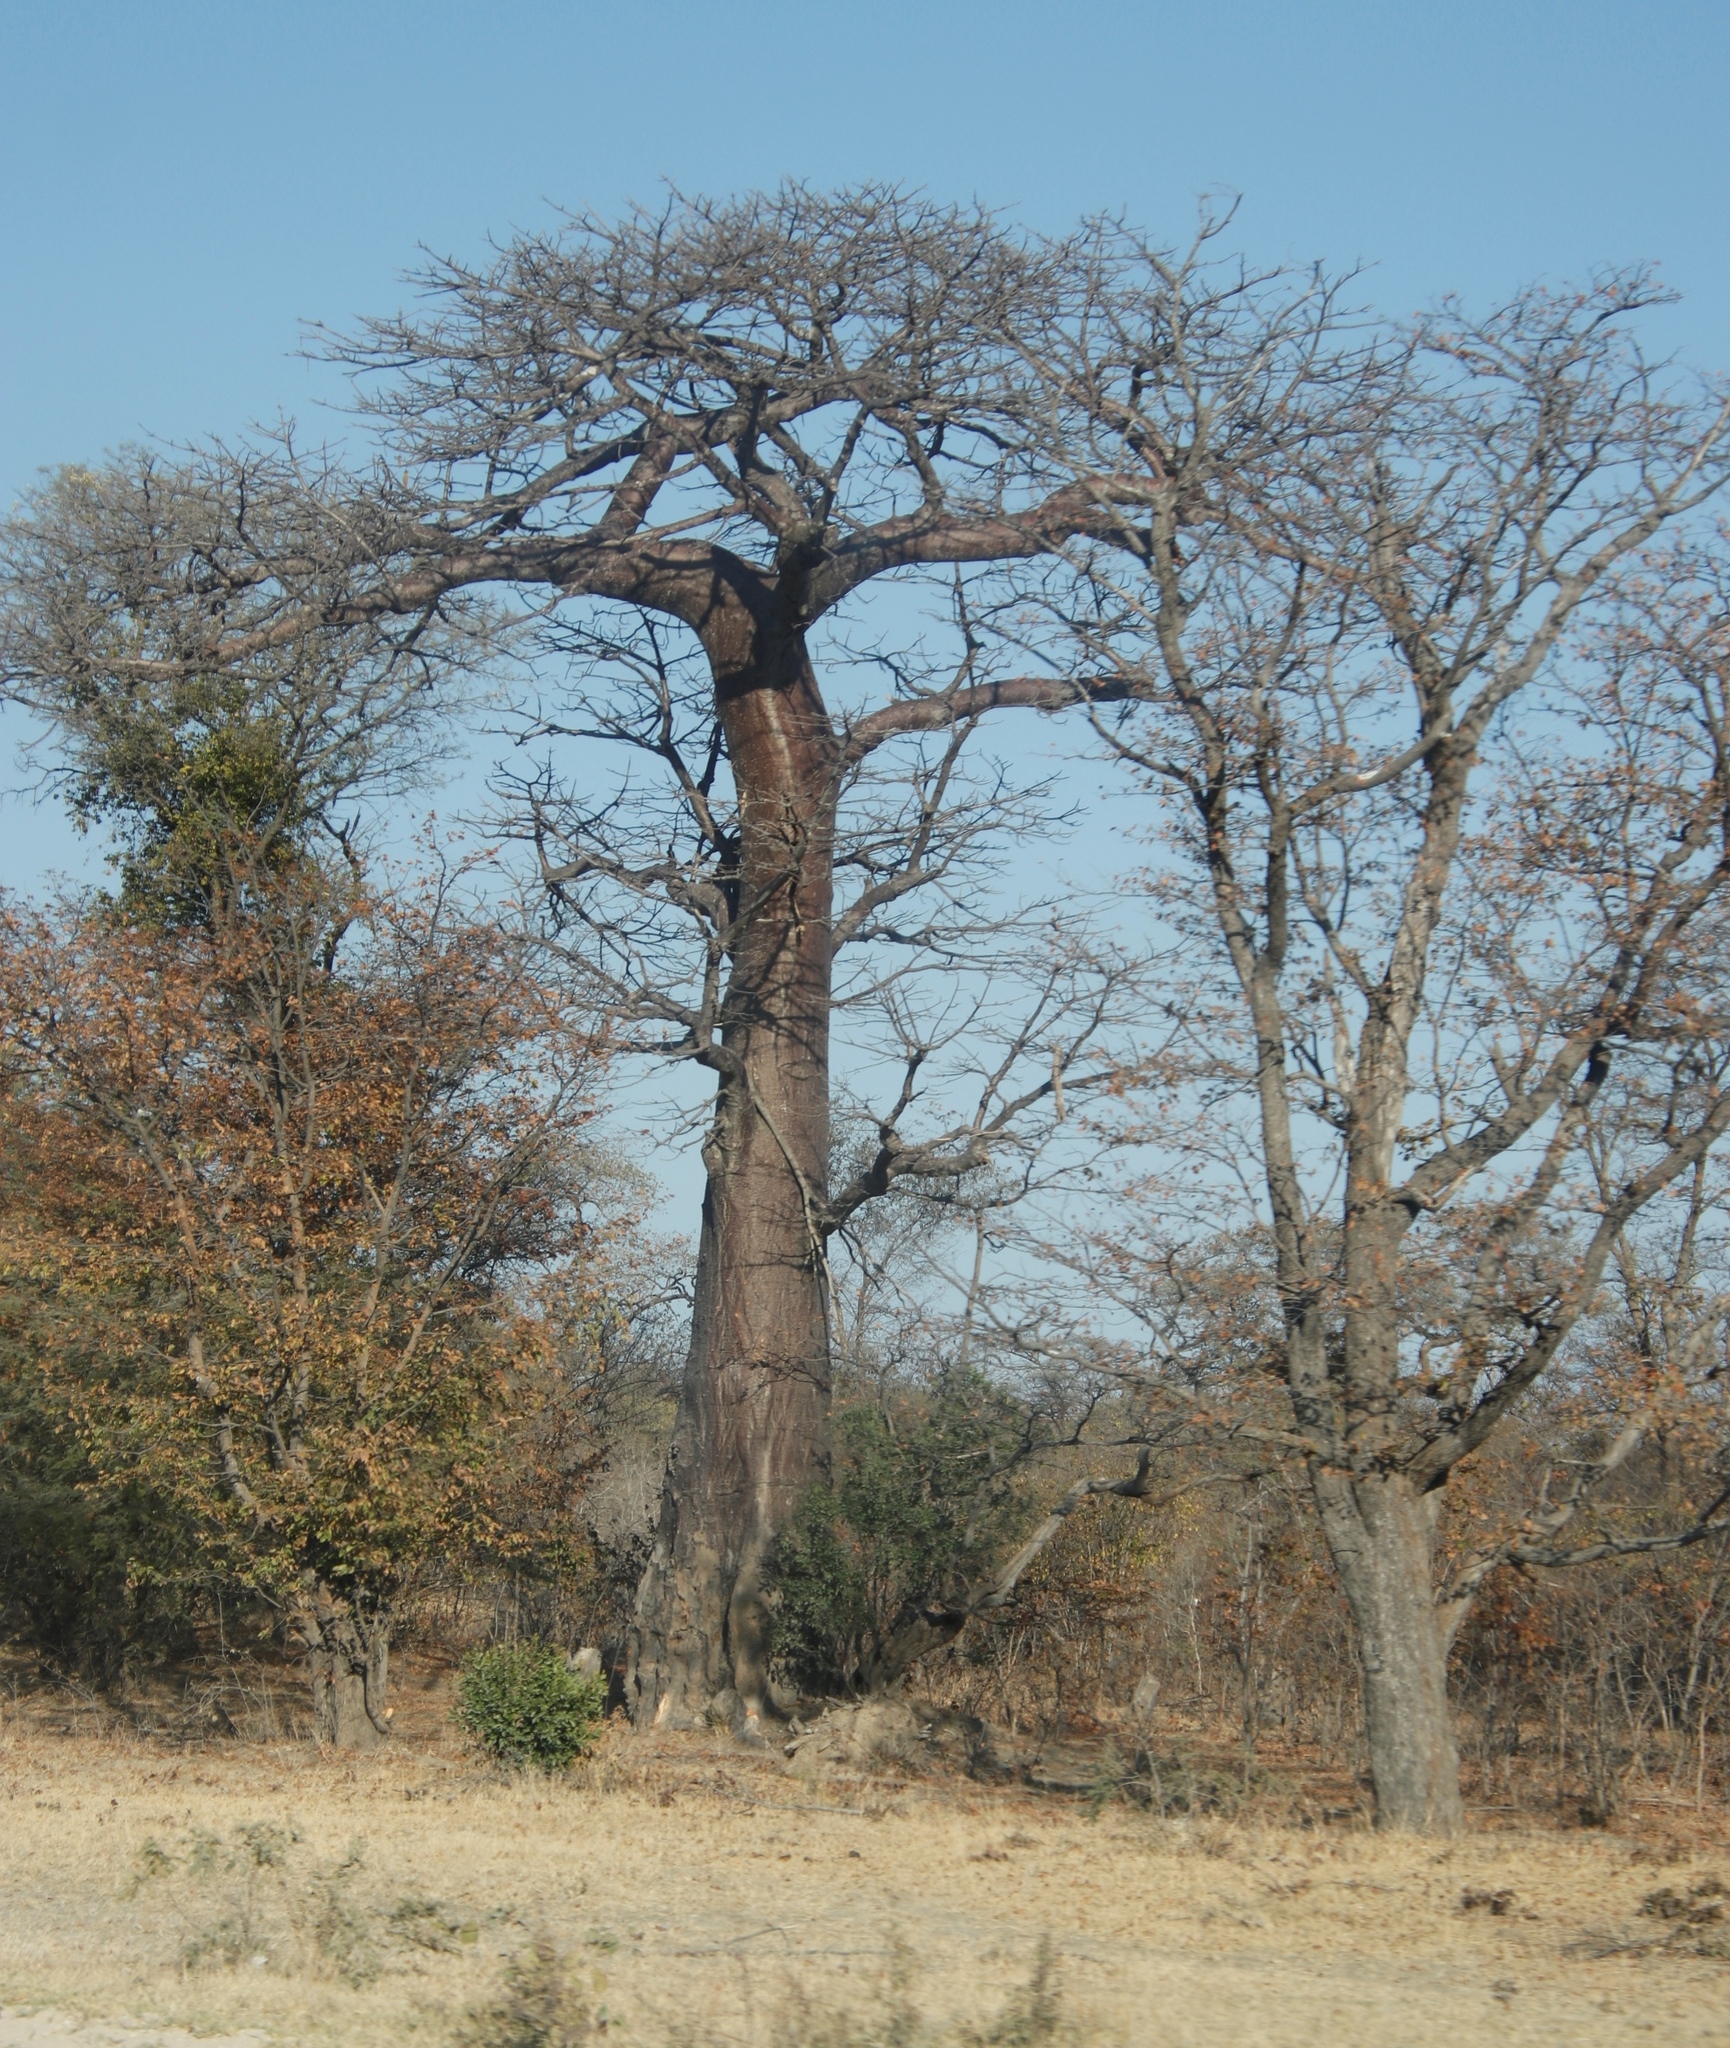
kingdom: Plantae
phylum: Tracheophyta
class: Magnoliopsida
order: Malvales
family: Malvaceae
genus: Adansonia
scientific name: Adansonia digitata
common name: Dead-rat-tree
